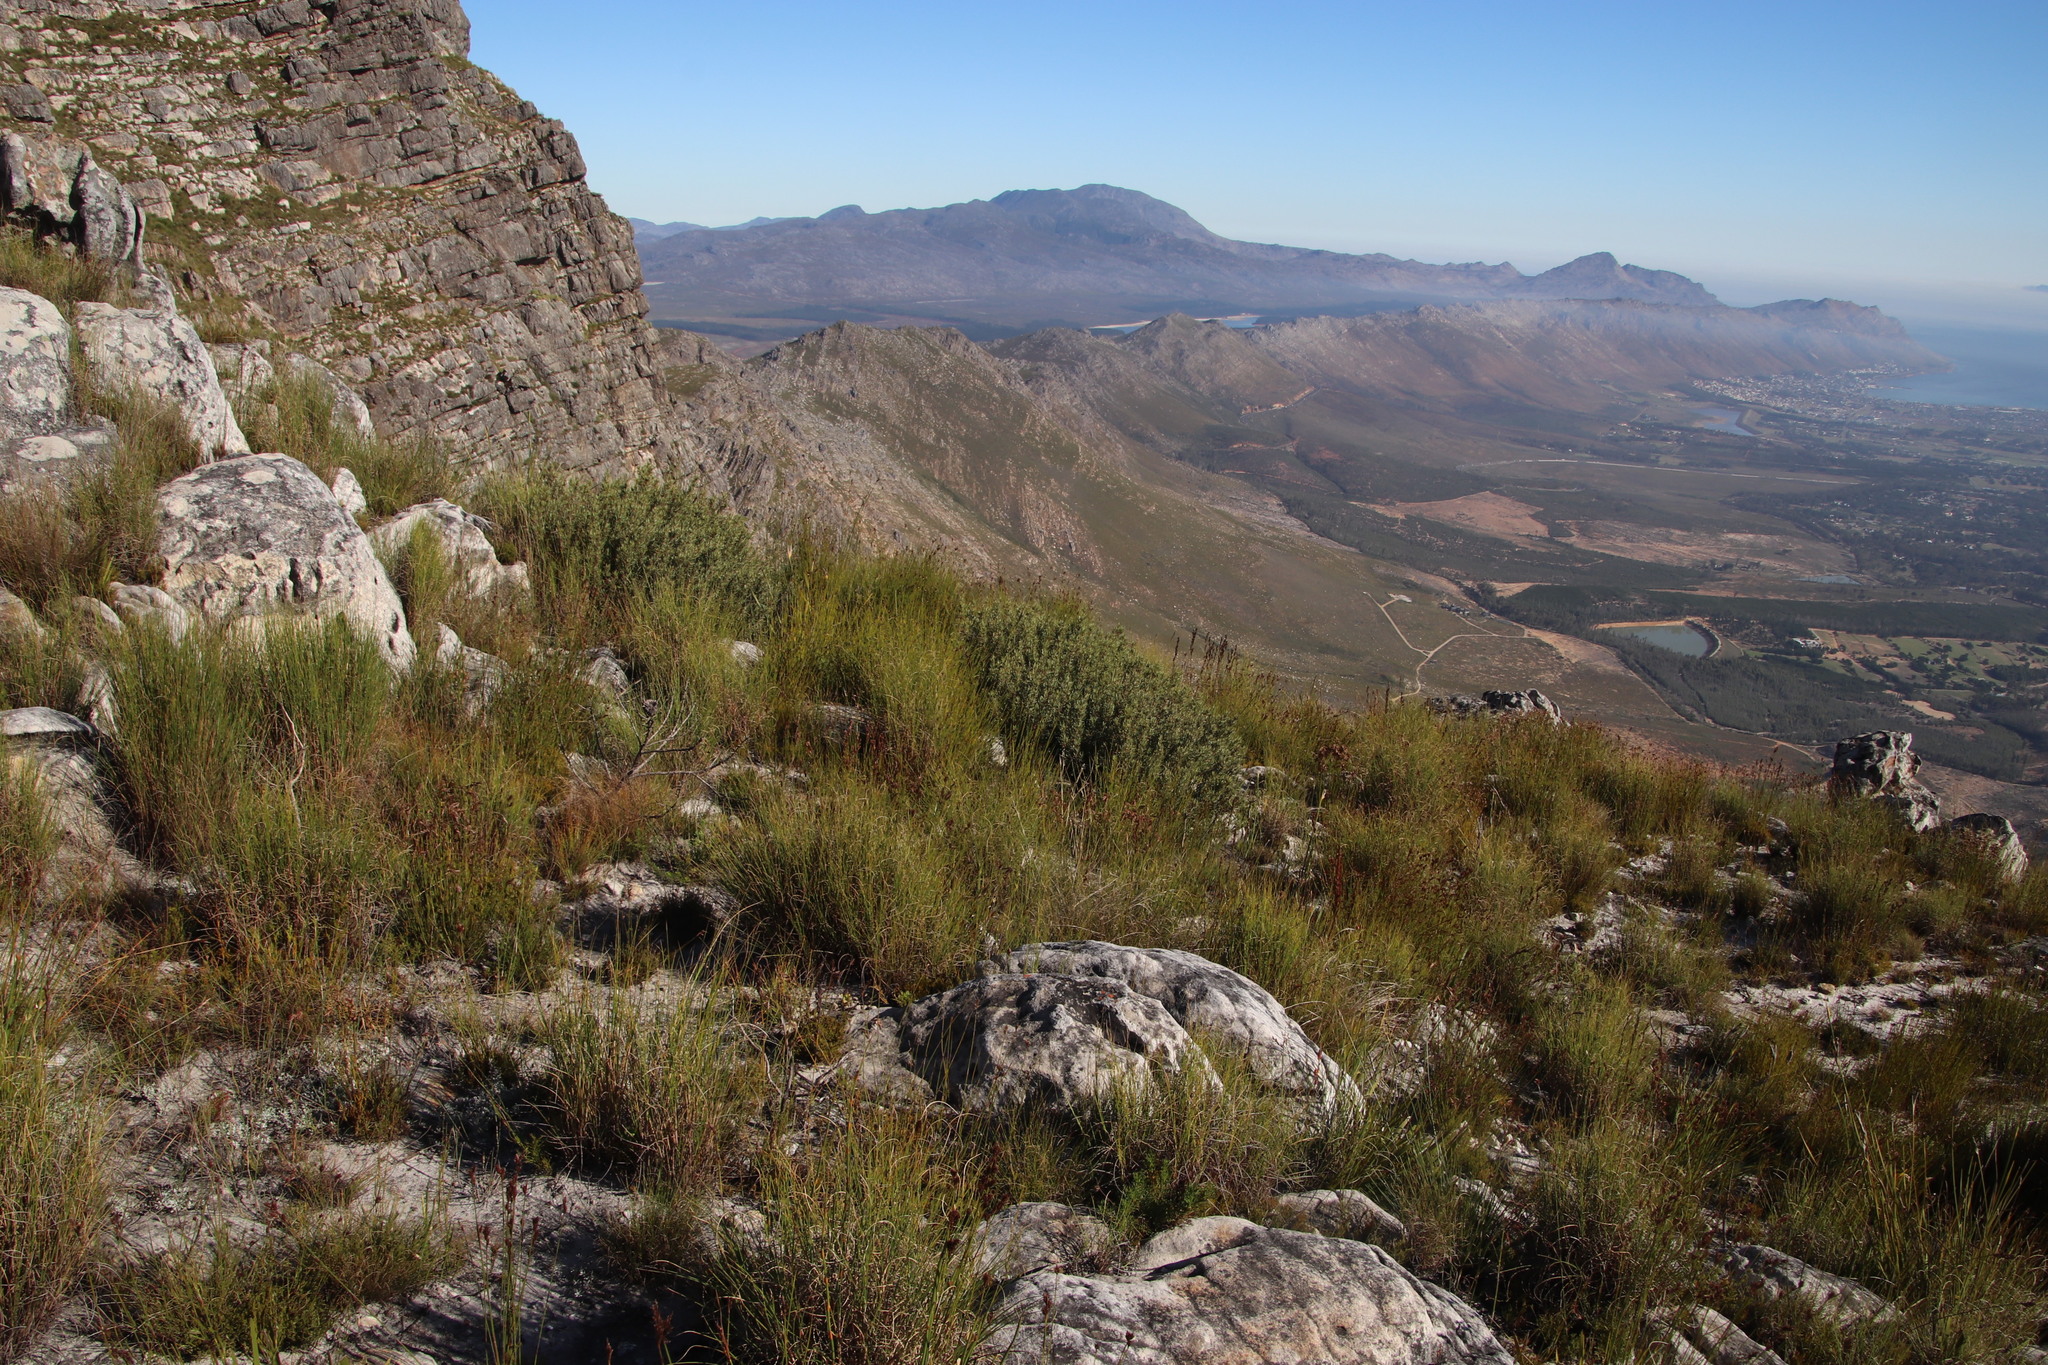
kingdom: Plantae
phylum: Tracheophyta
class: Magnoliopsida
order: Cornales
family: Grubbiaceae
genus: Grubbia
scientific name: Grubbia tomentosa
